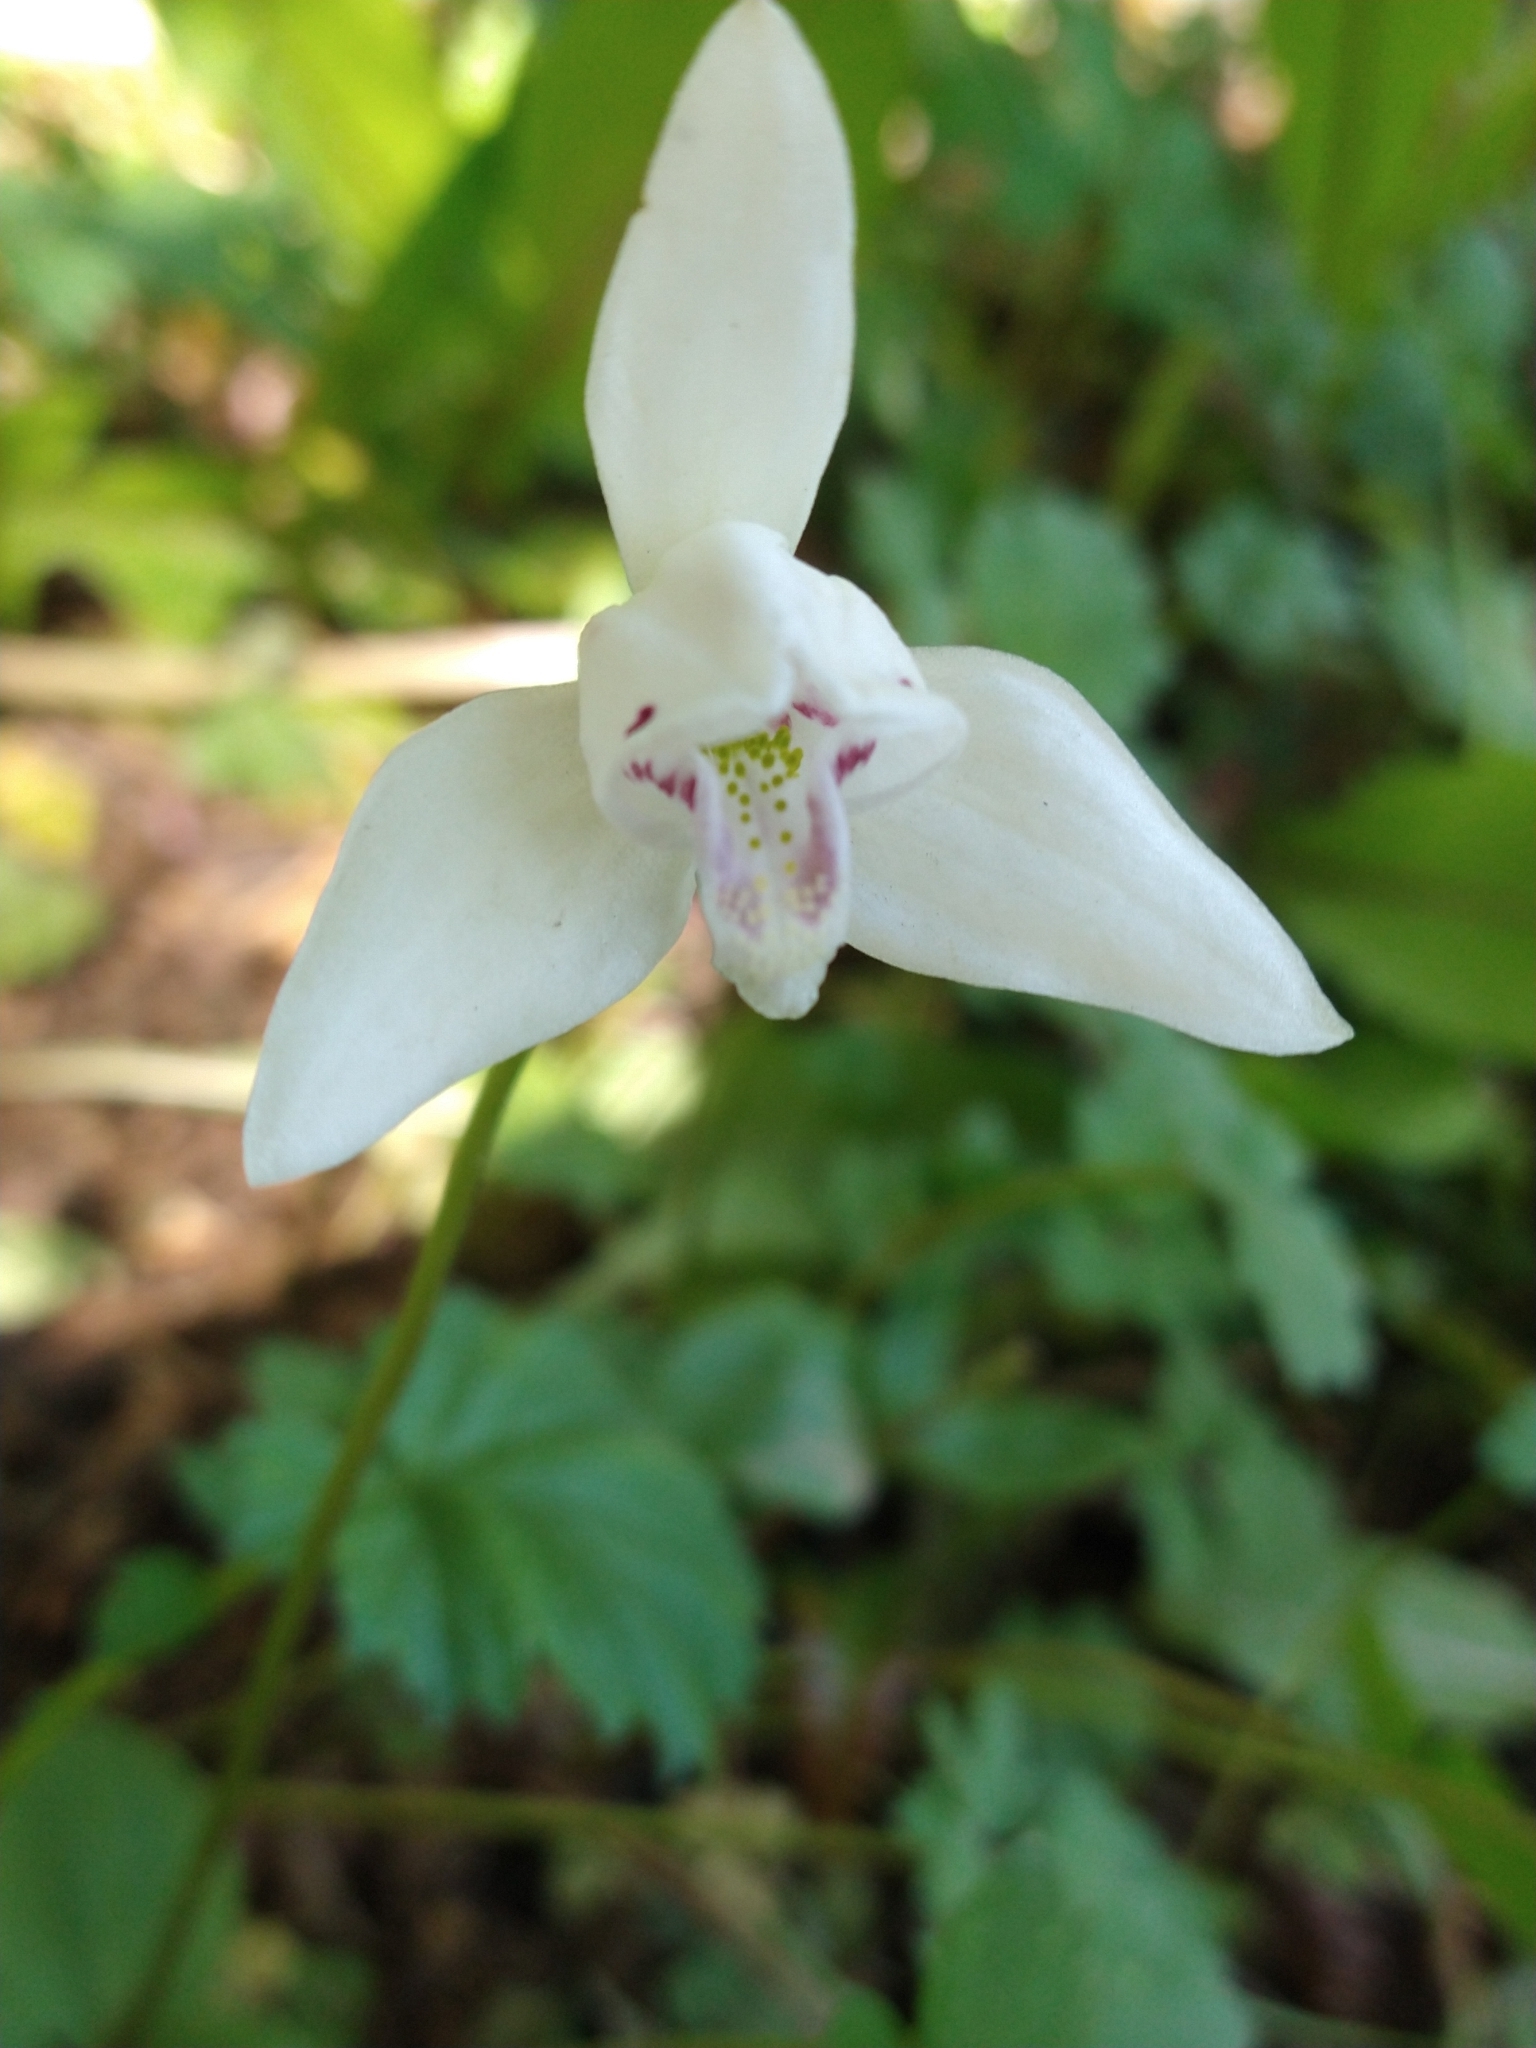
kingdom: Plantae
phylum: Tracheophyta
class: Liliopsida
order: Asparagales
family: Orchidaceae
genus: Codonorchis
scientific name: Codonorchis lessonii
